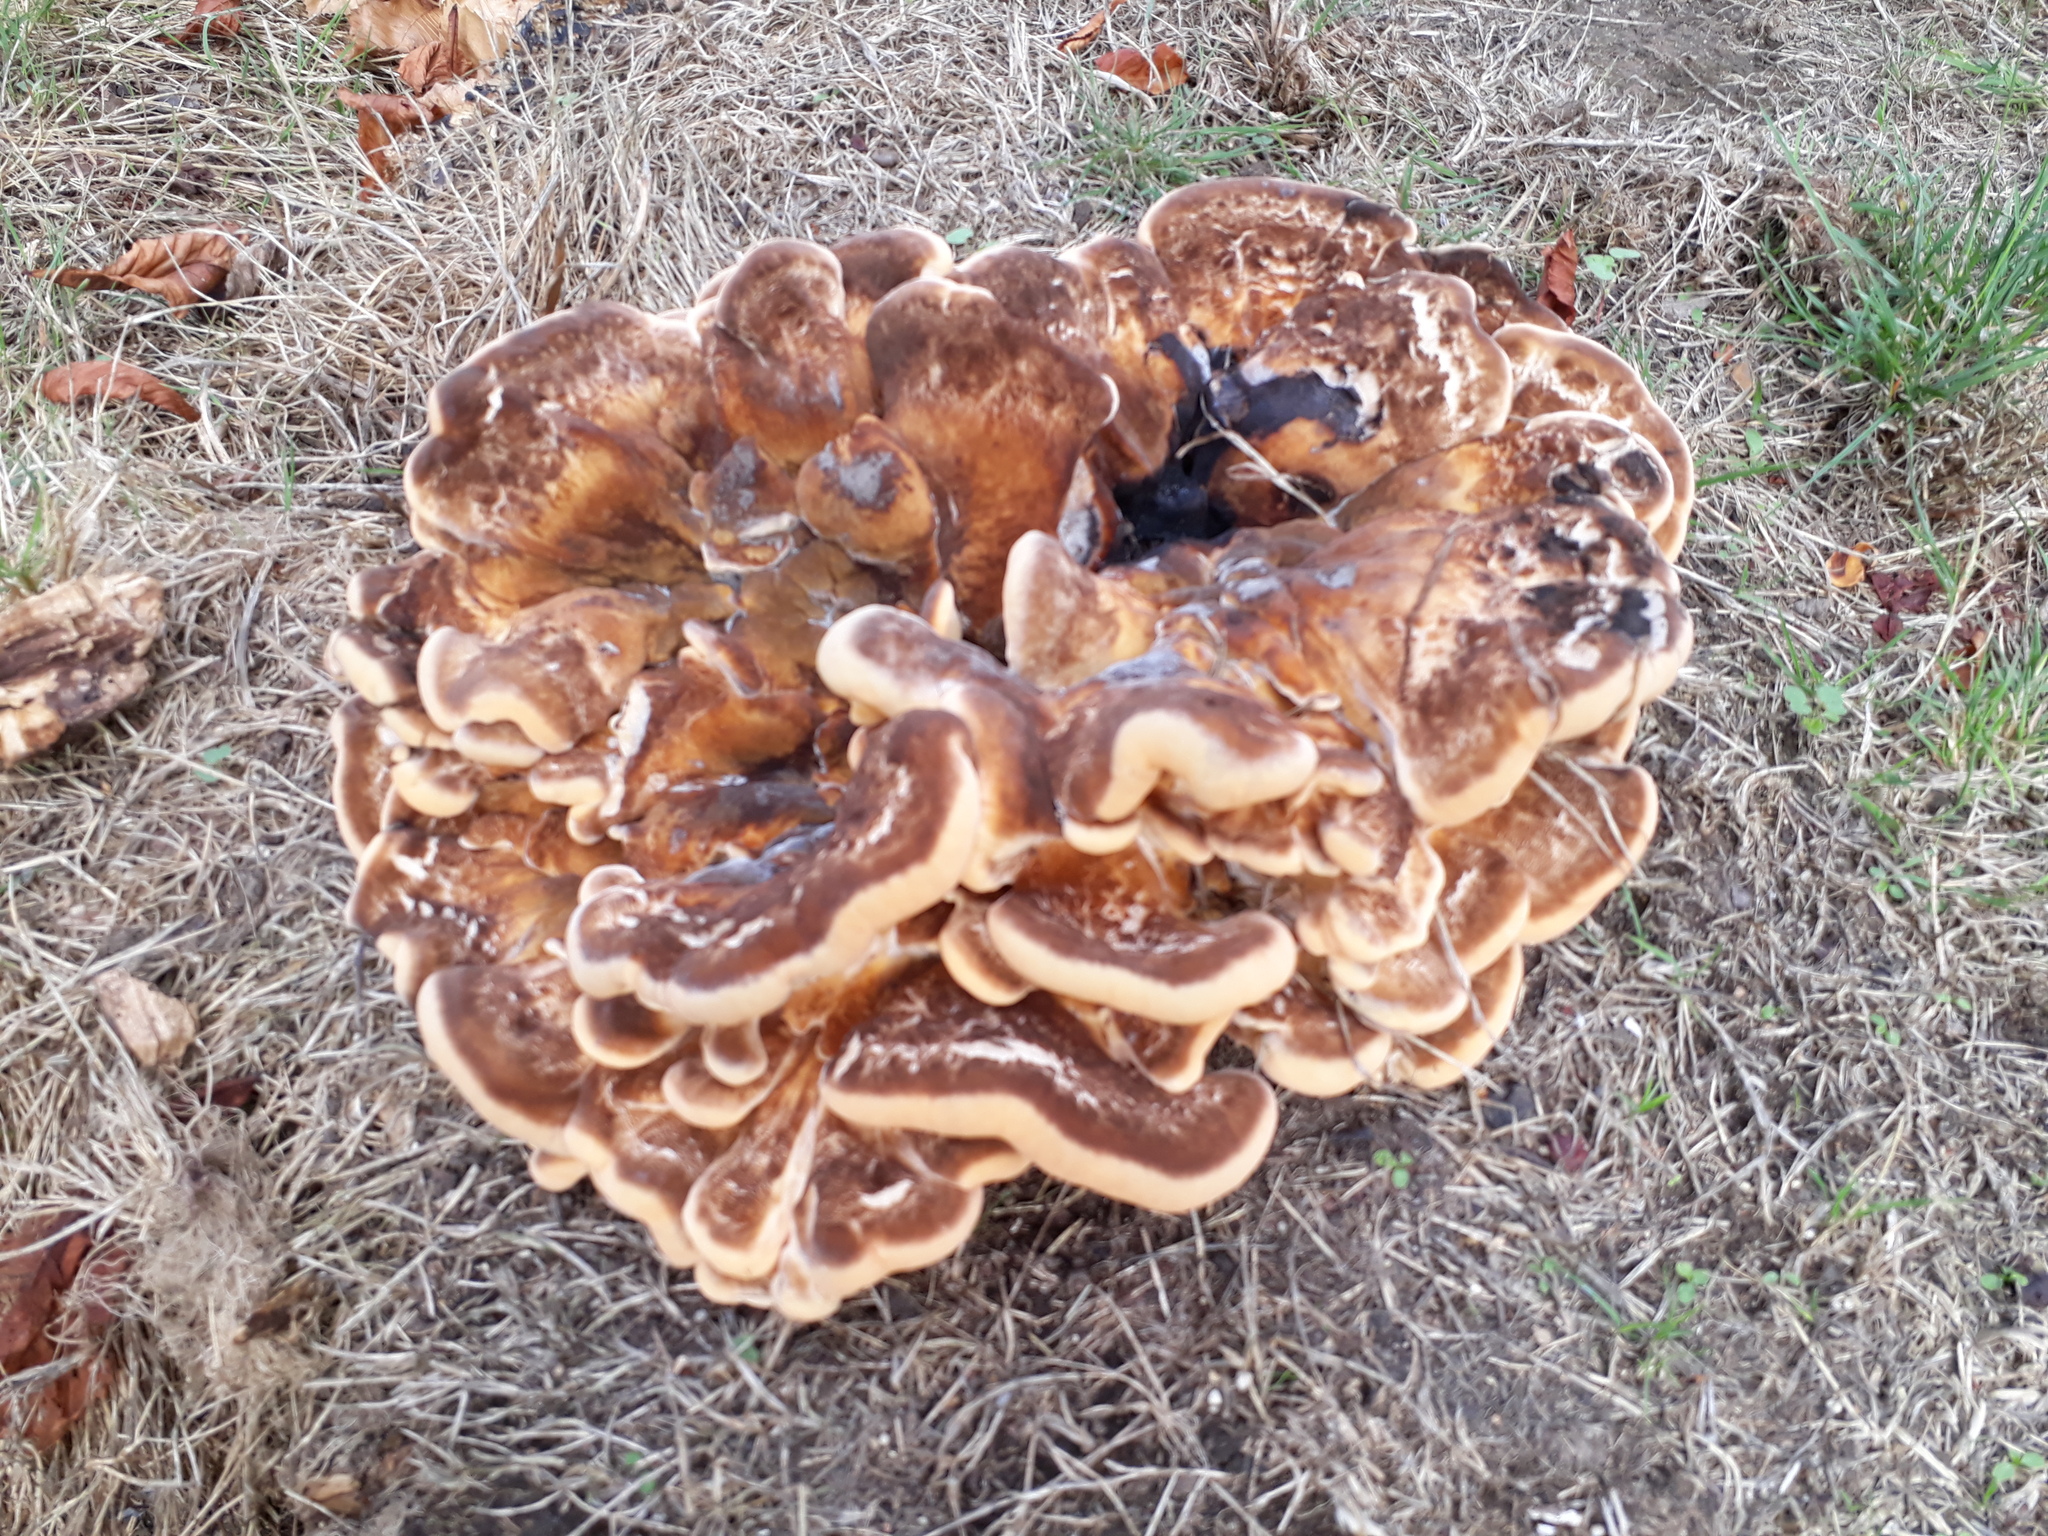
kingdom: Fungi
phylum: Basidiomycota
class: Agaricomycetes
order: Polyporales
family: Meripilaceae
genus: Meripilus
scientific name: Meripilus giganteus
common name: Giant polypore
